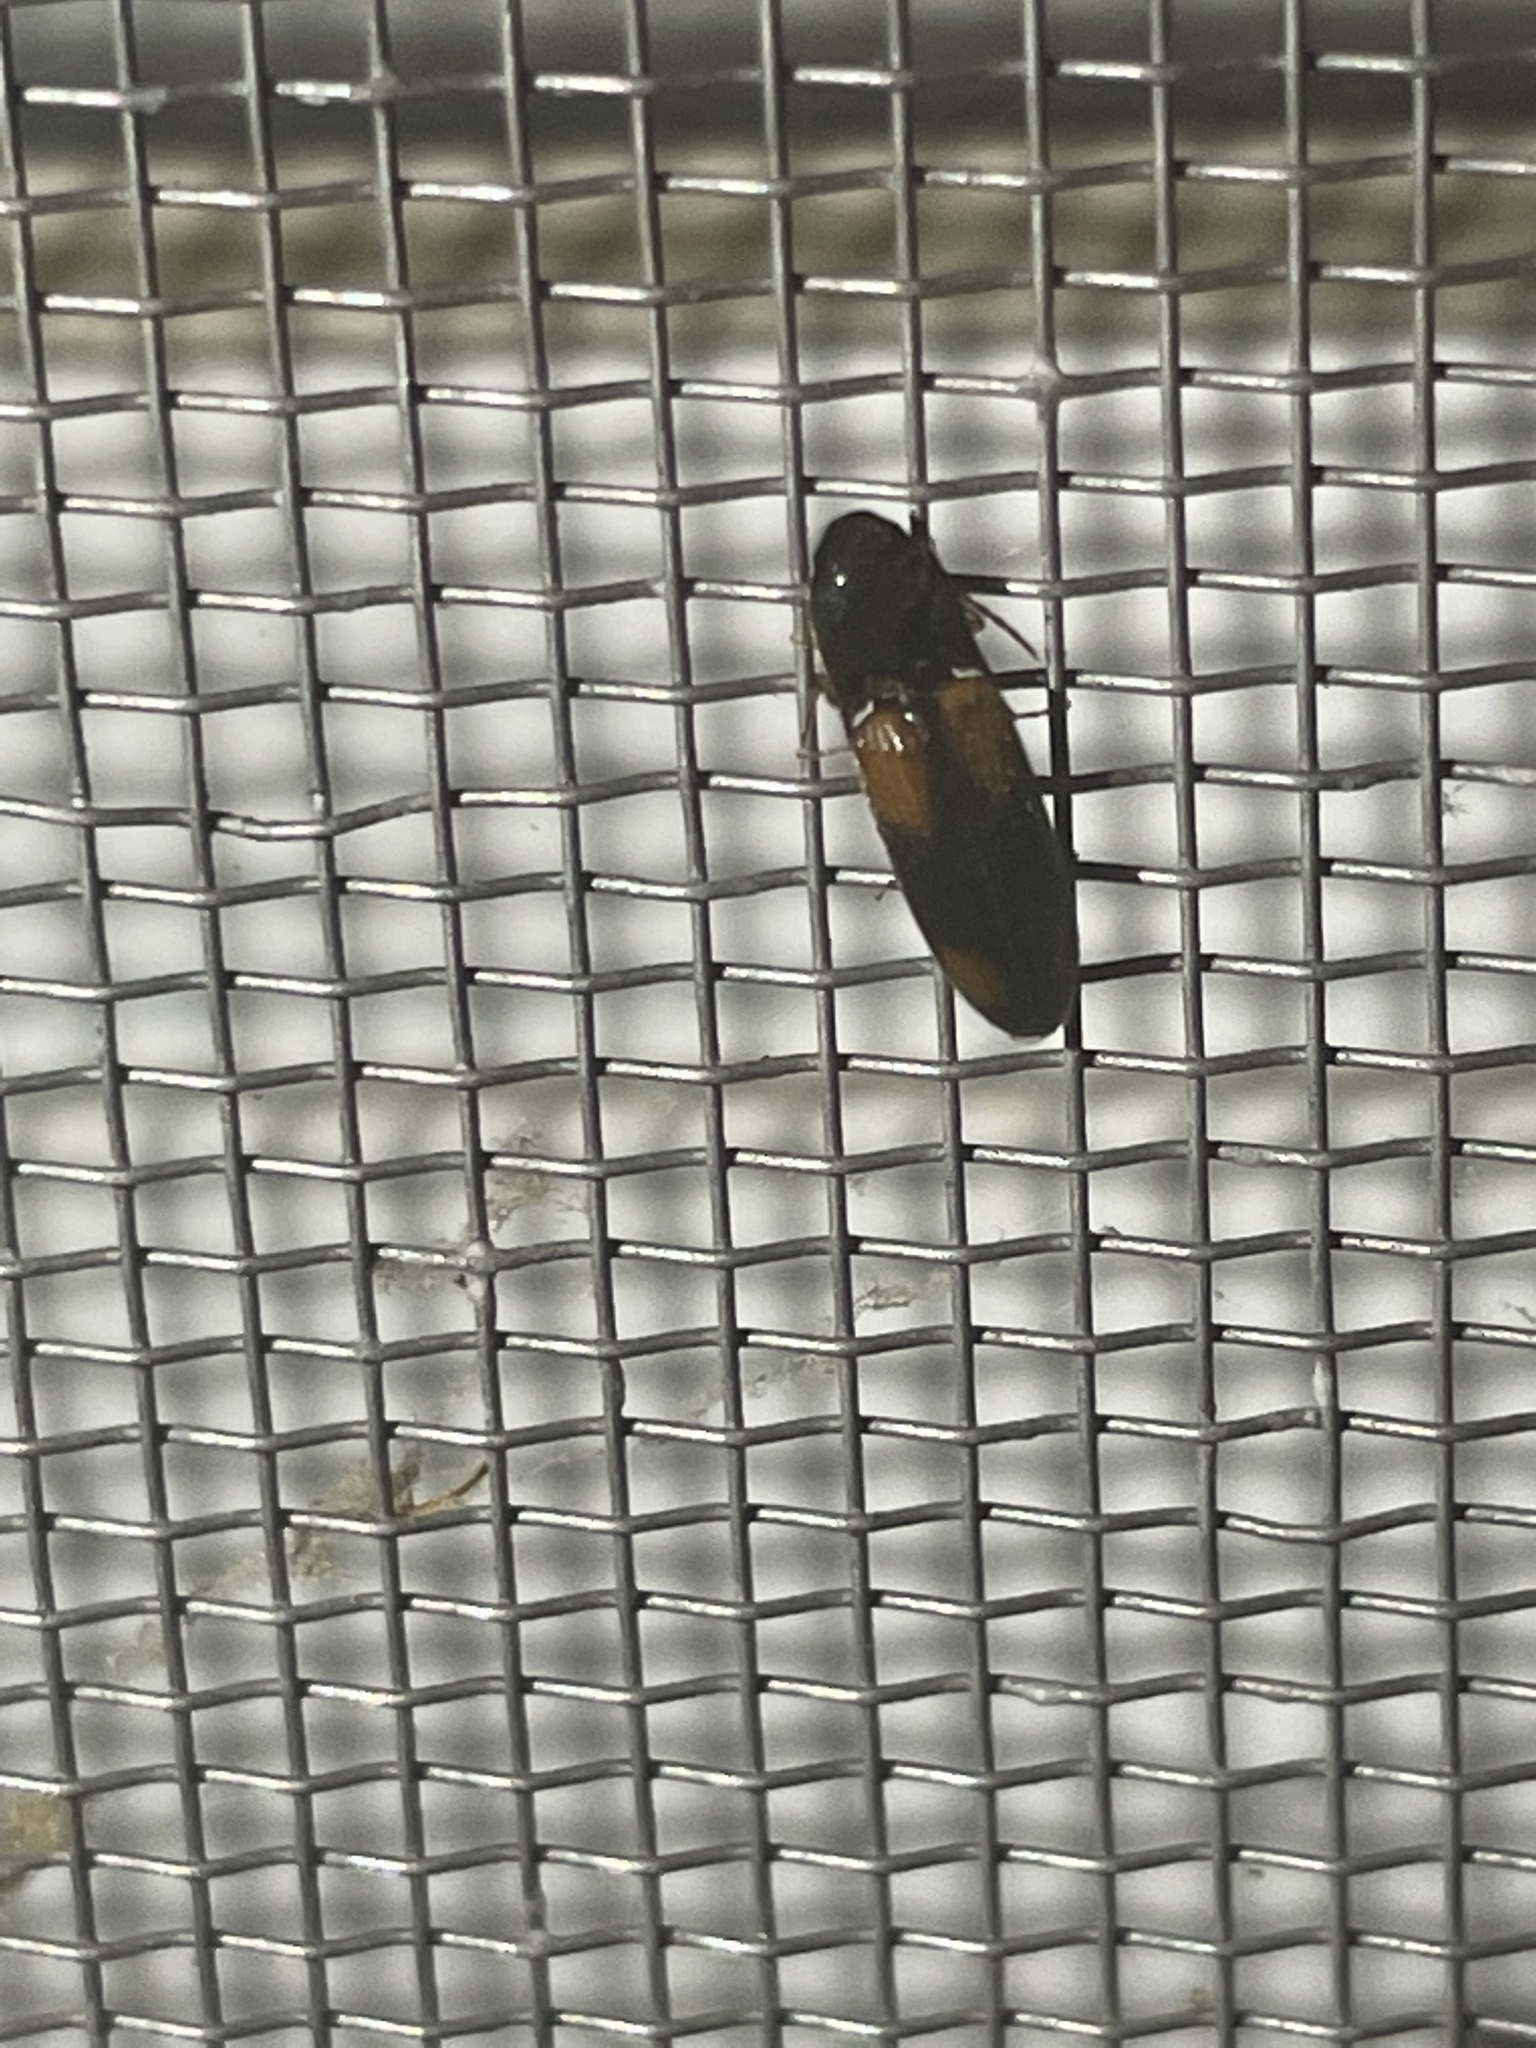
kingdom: Animalia
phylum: Arthropoda
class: Insecta
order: Coleoptera
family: Elateridae
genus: Anchastus
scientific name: Anchastus binus
